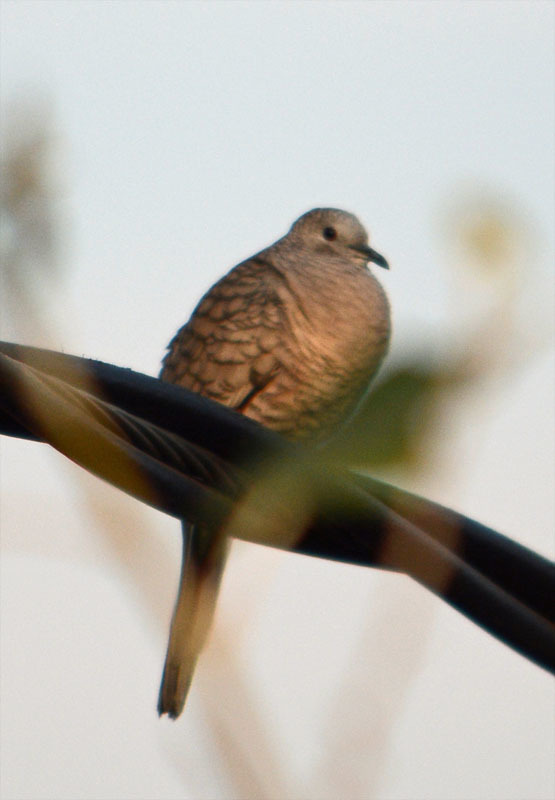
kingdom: Animalia
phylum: Chordata
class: Aves
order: Columbiformes
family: Columbidae
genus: Columbina
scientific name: Columbina inca
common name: Inca dove
